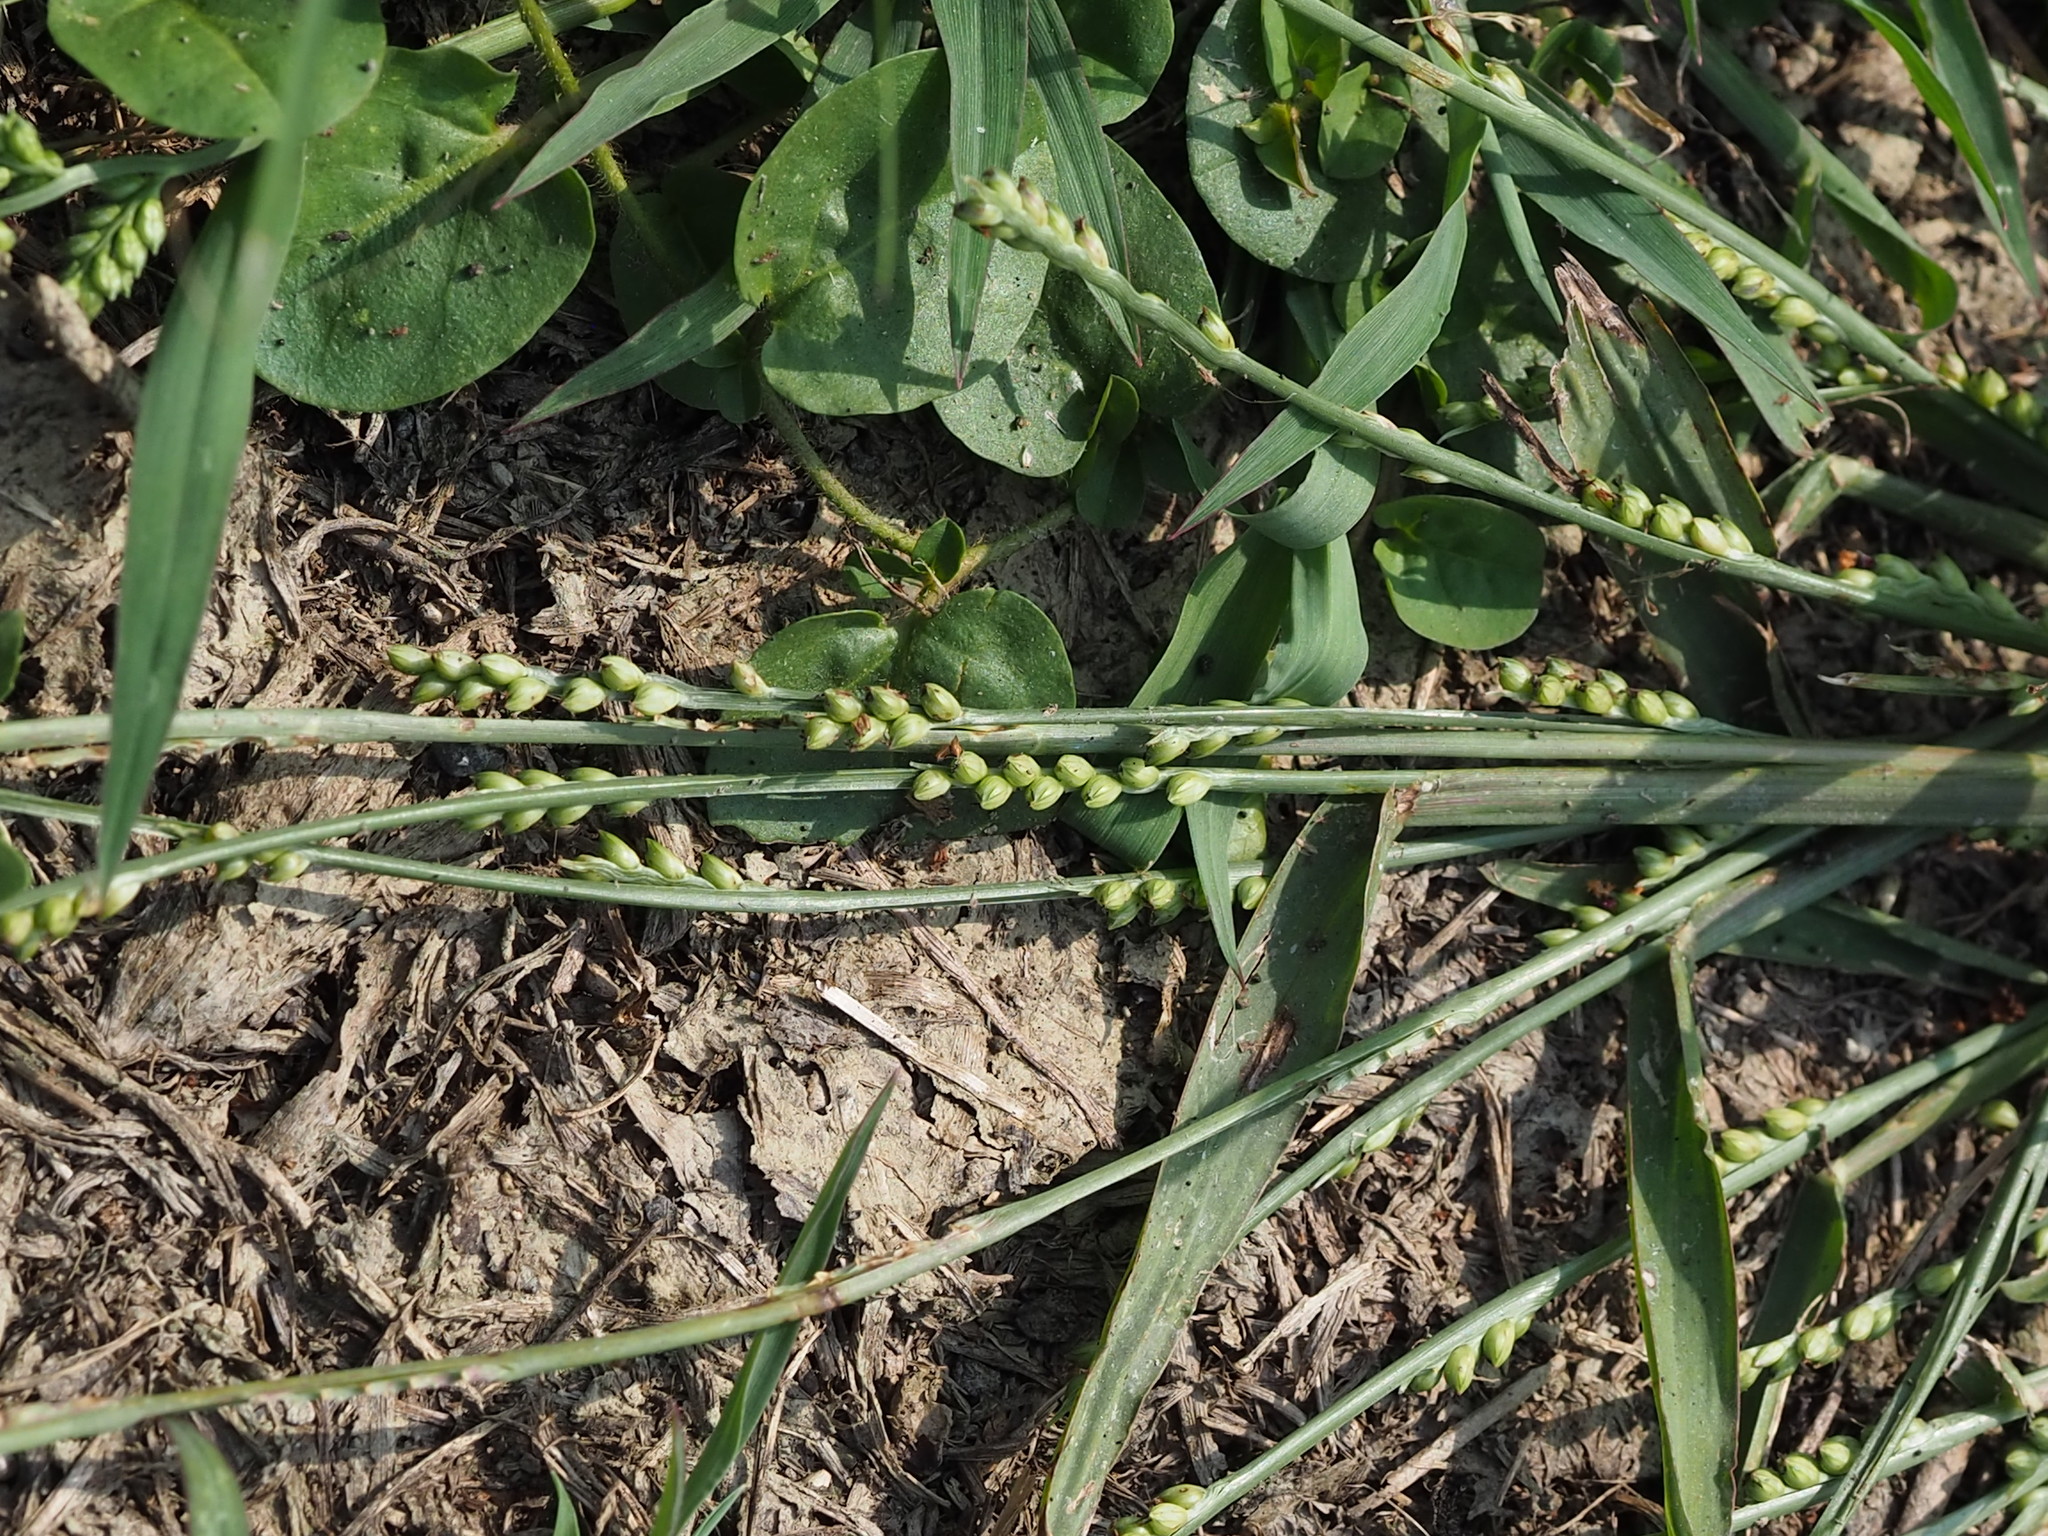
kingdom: Plantae
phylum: Tracheophyta
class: Liliopsida
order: Poales
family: Poaceae
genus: Setaria
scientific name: Setaria flavida
